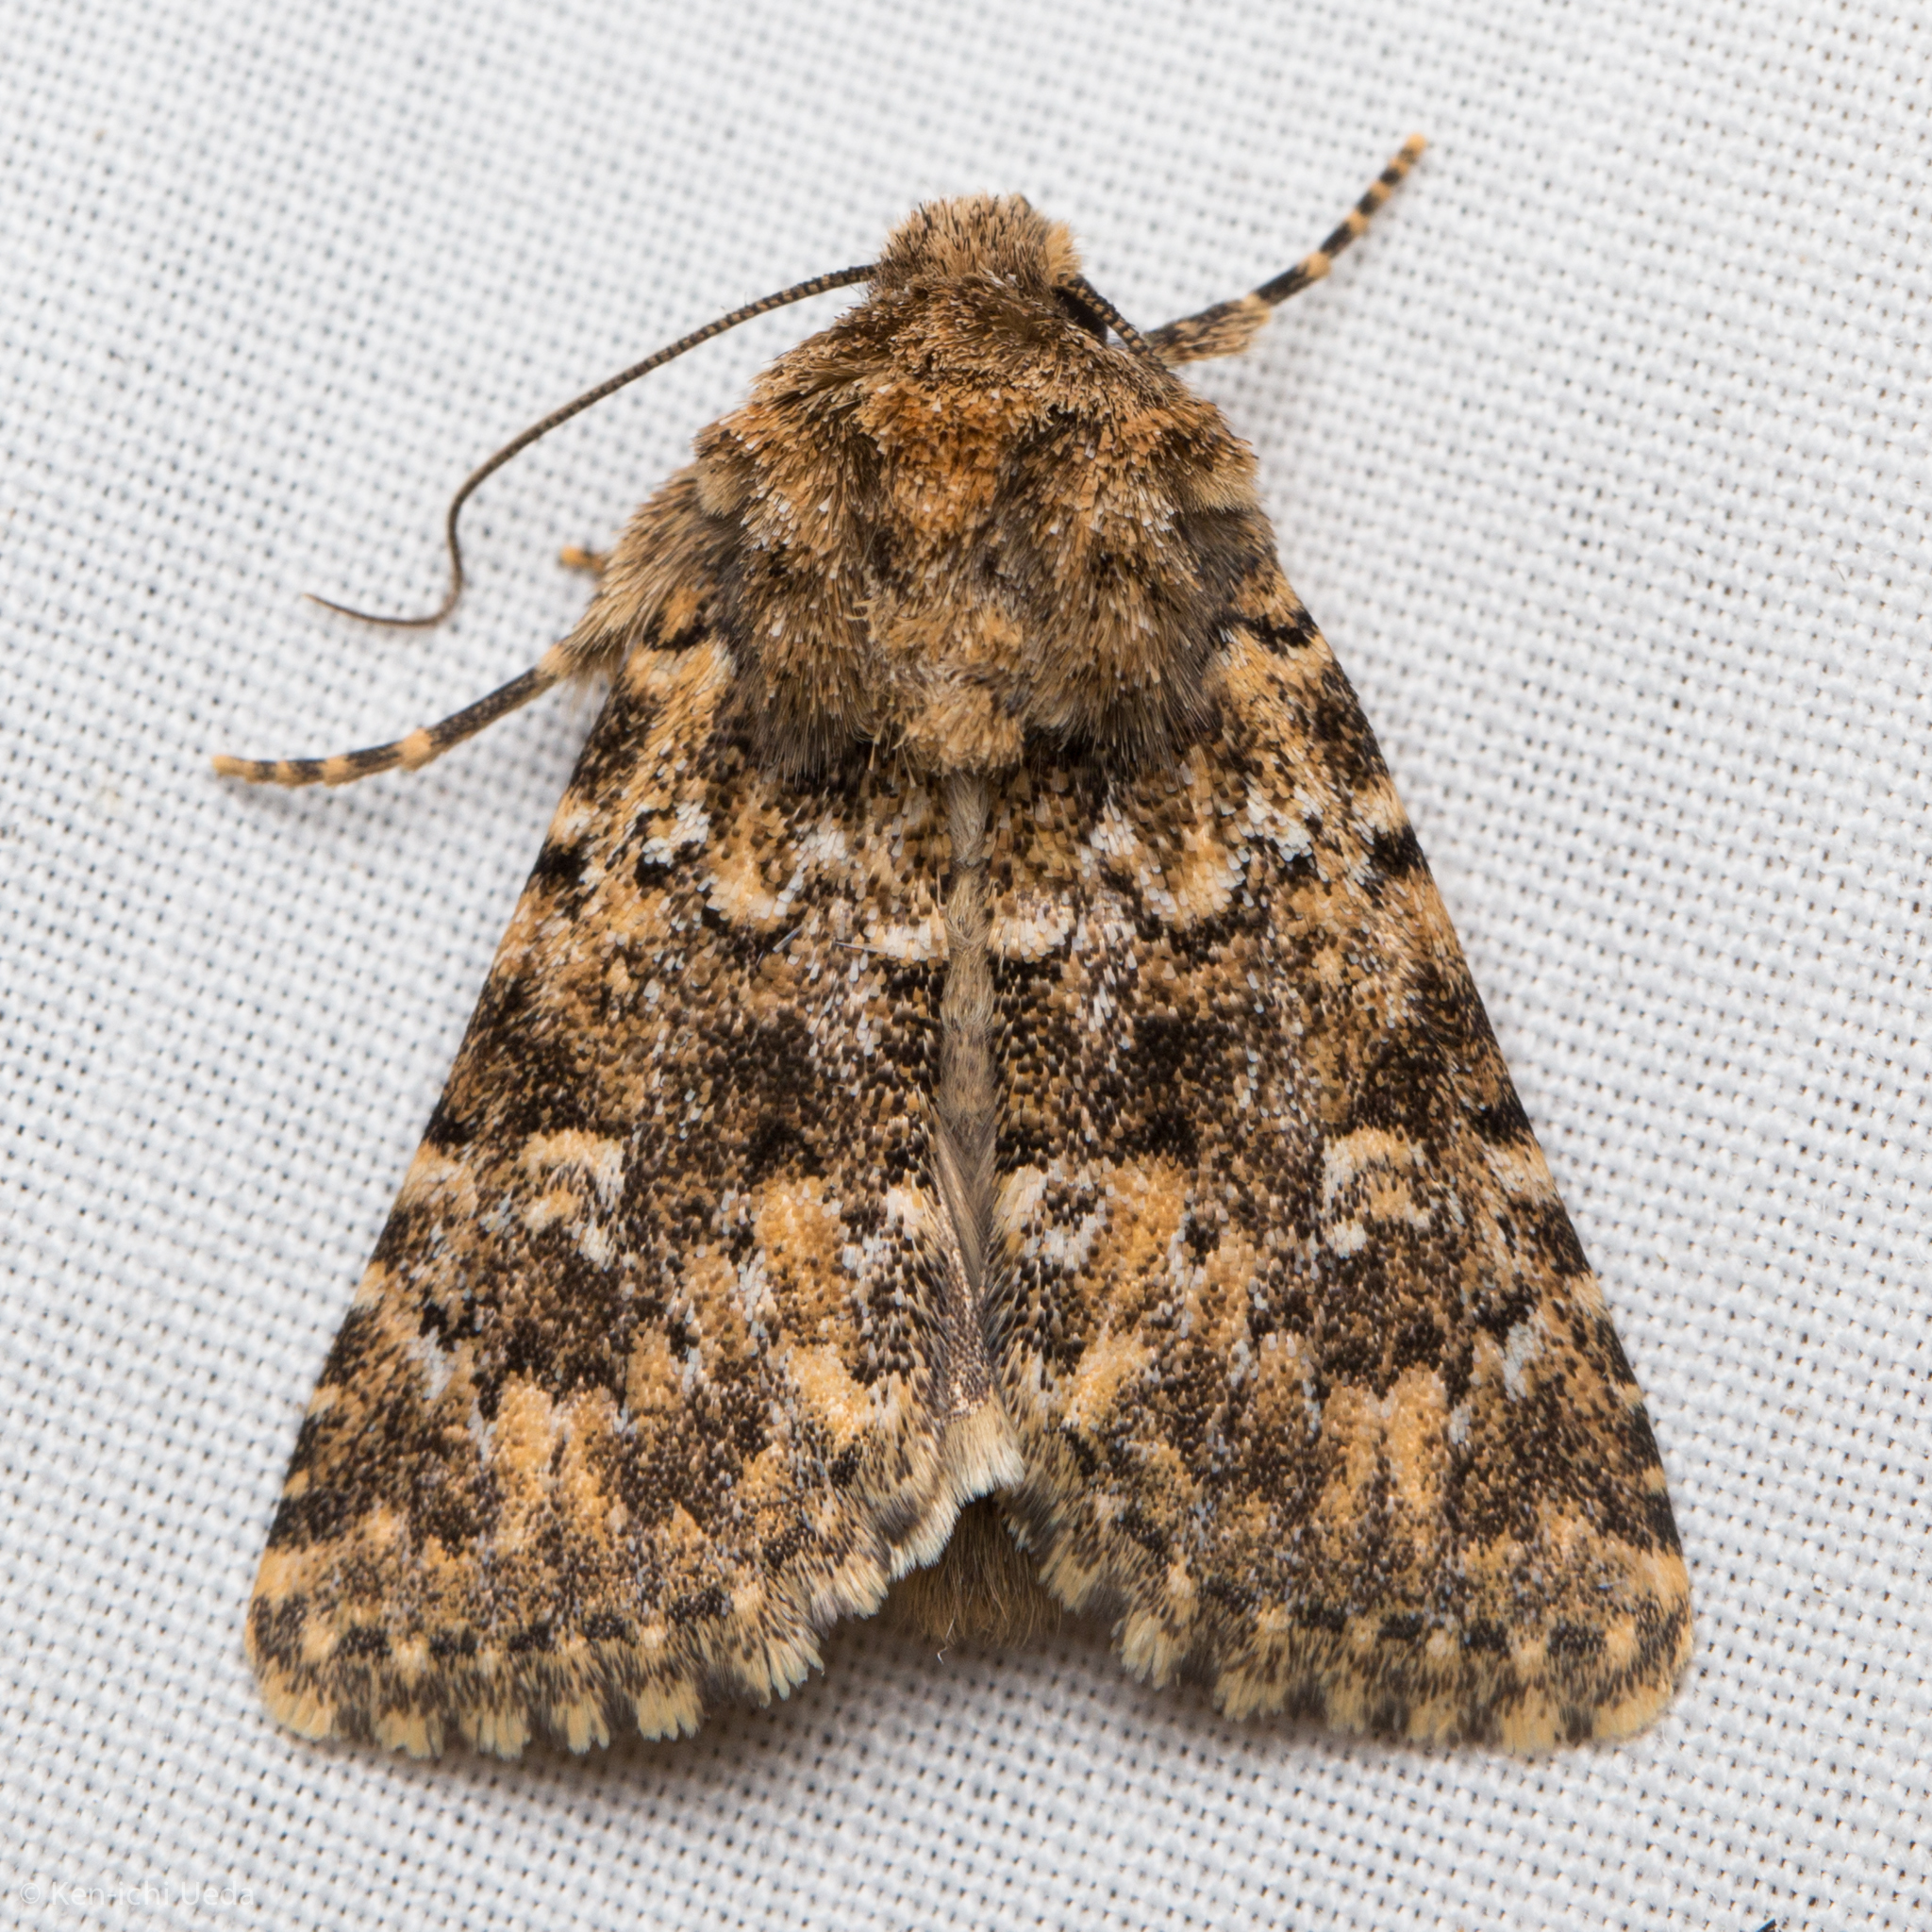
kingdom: Animalia
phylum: Arthropoda
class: Insecta
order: Lepidoptera
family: Noctuidae
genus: Properigea
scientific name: Properigea perolivalis
